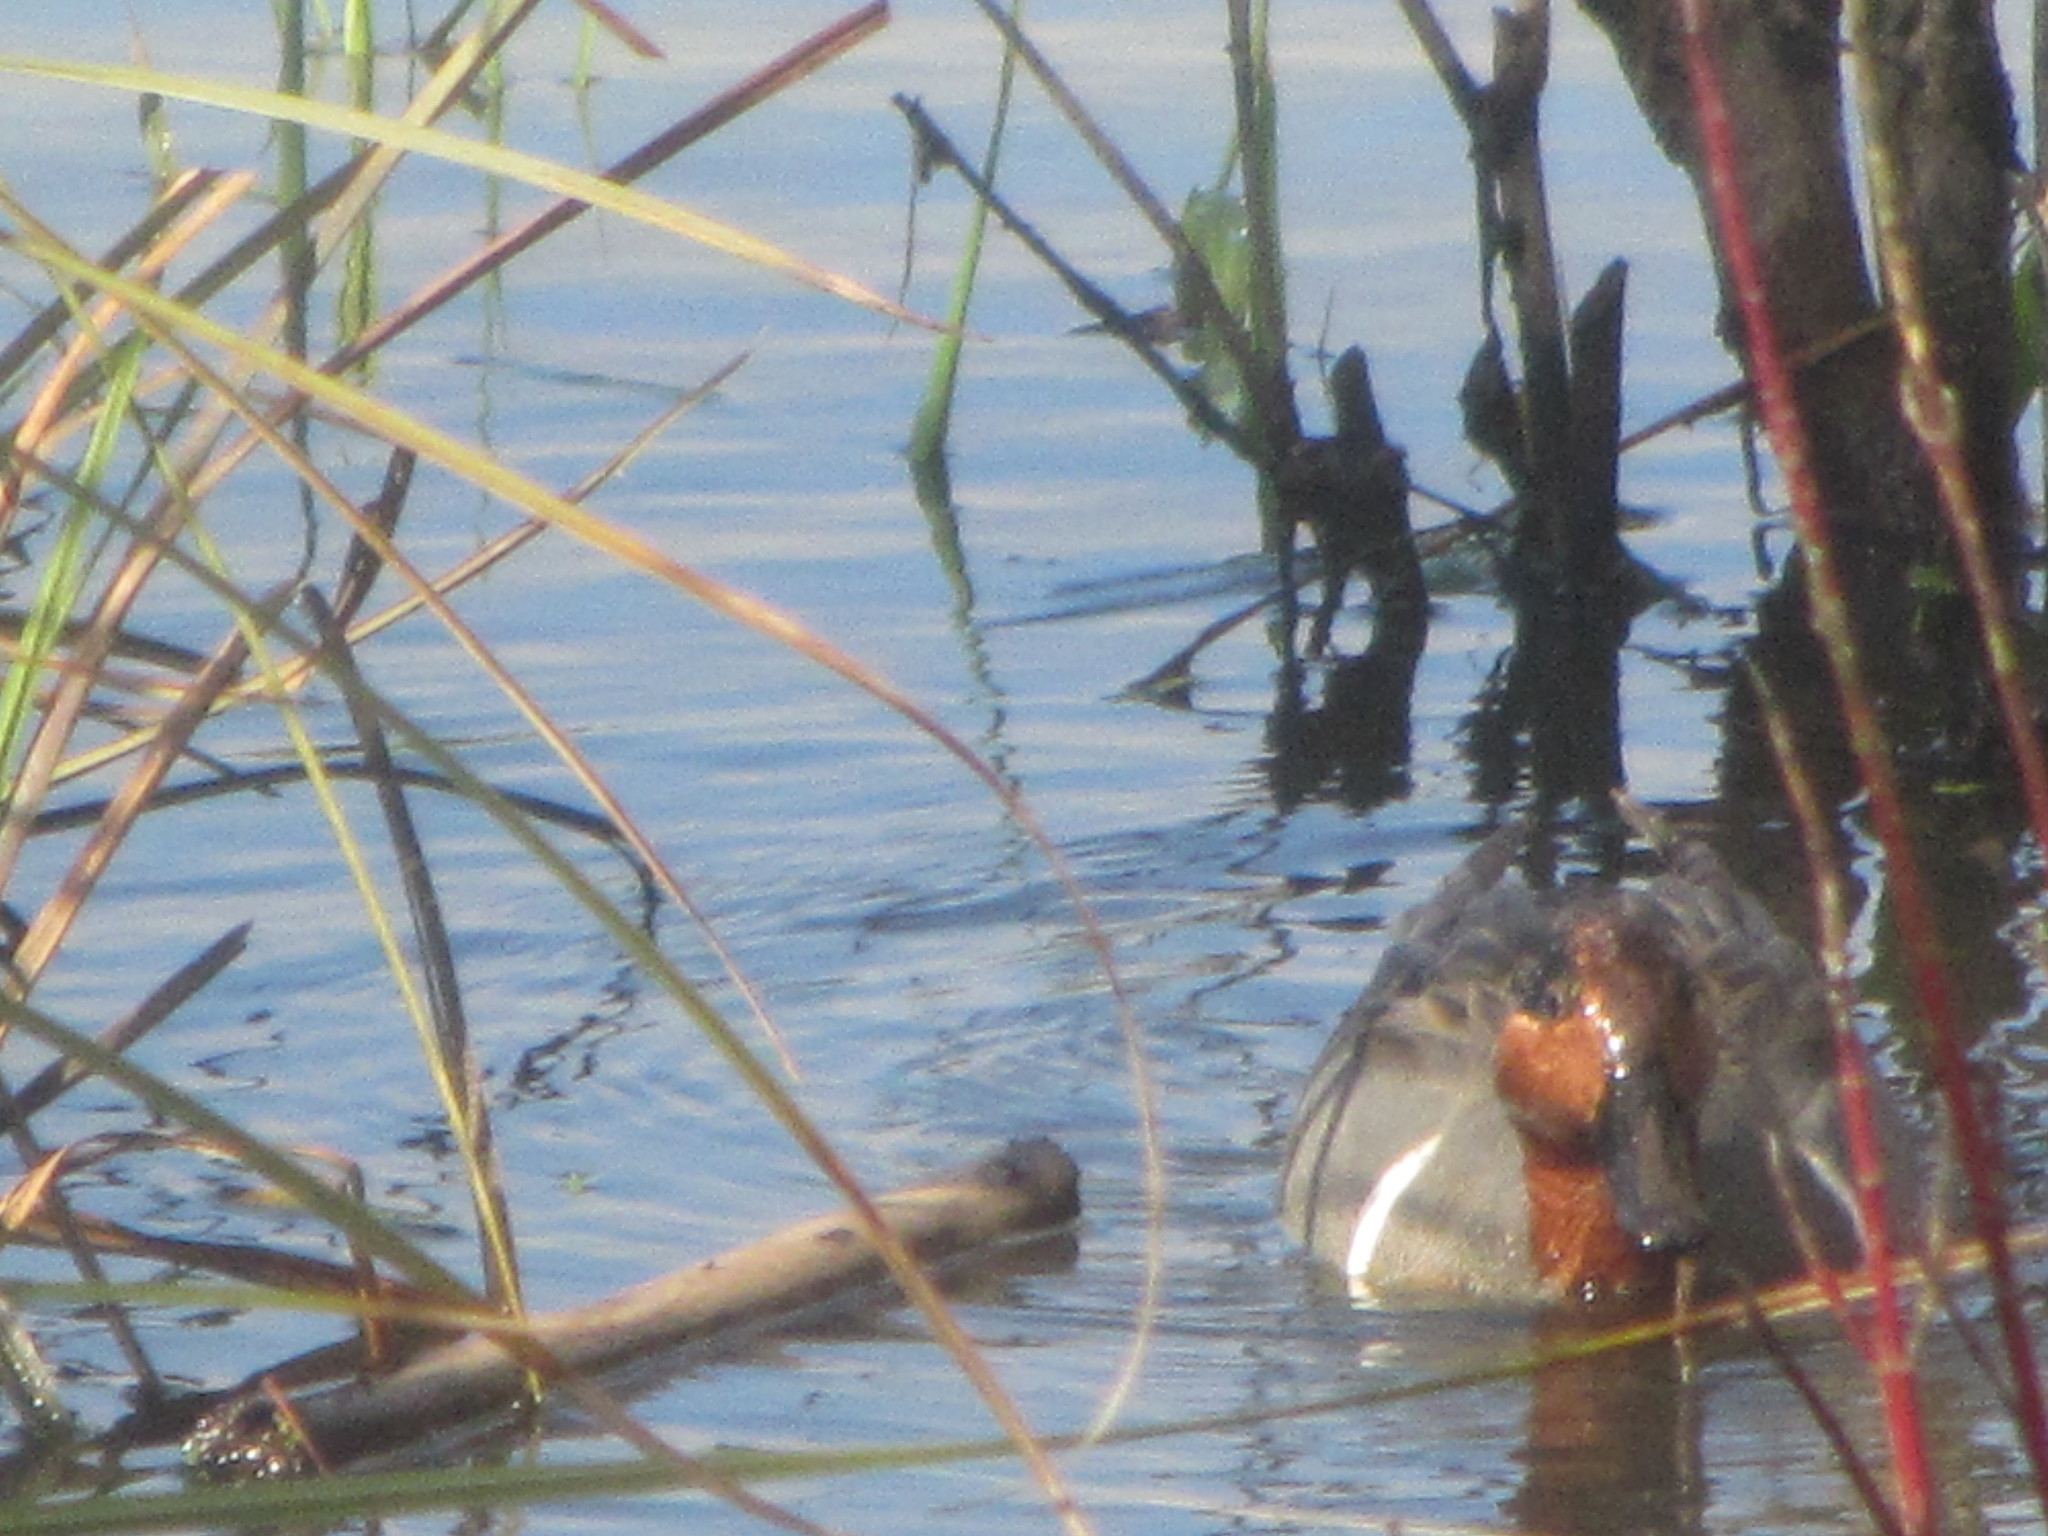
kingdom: Animalia
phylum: Chordata
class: Aves
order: Anseriformes
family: Anatidae
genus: Anas
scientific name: Anas crecca
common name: Eurasian teal
